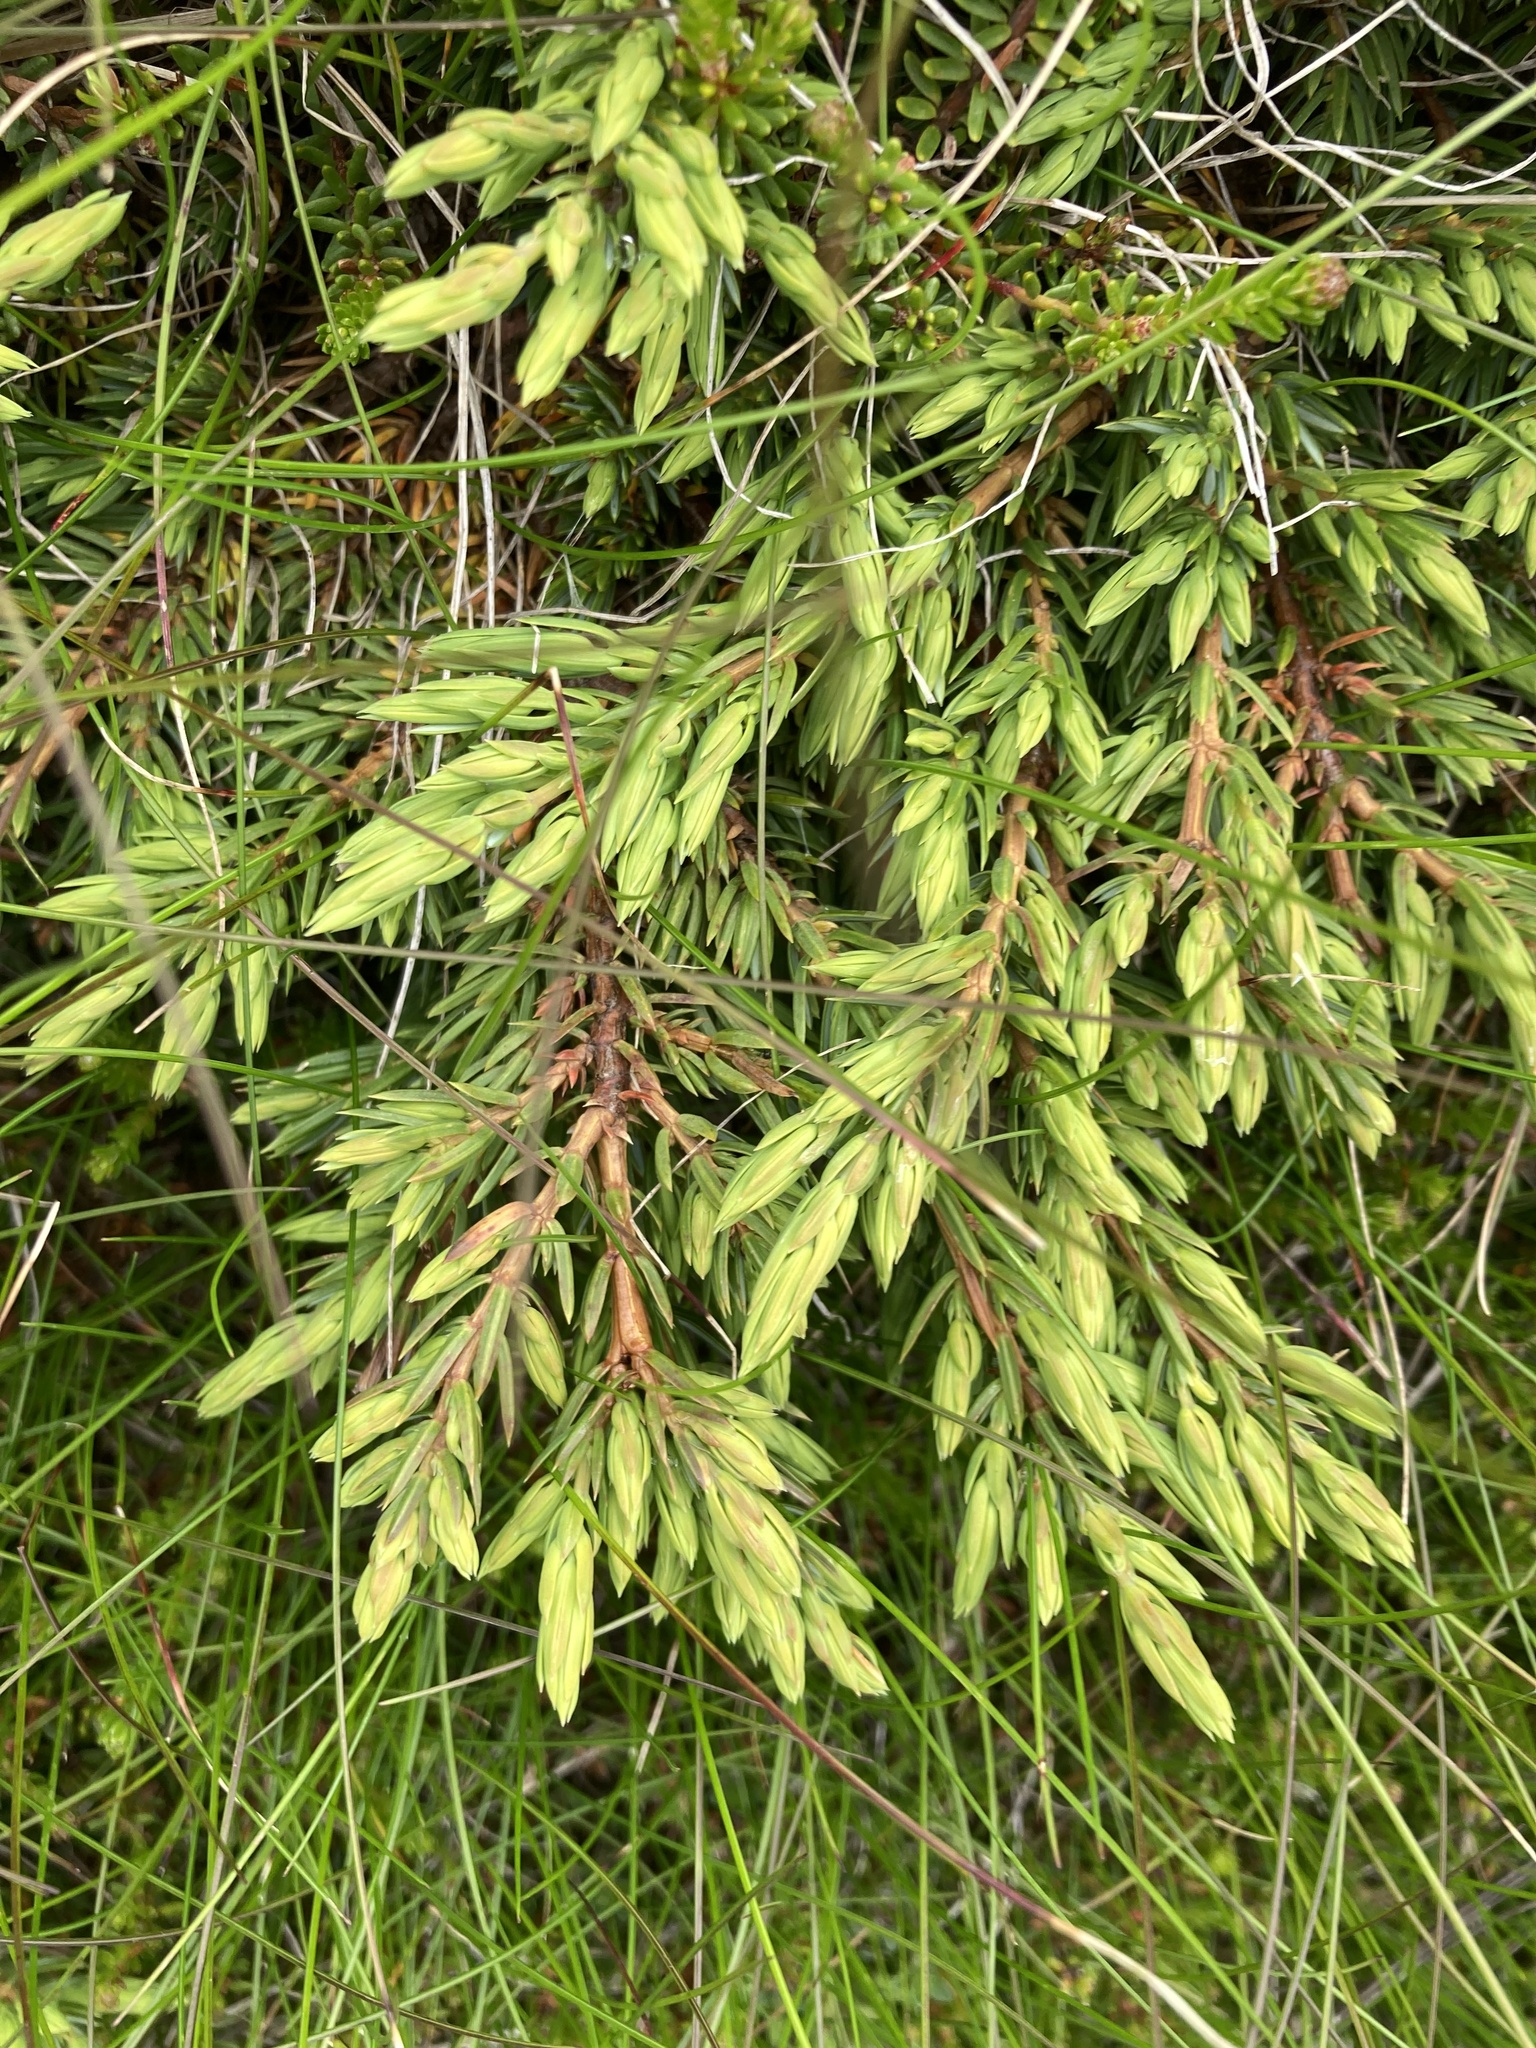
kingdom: Plantae
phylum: Tracheophyta
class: Pinopsida
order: Pinales
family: Cupressaceae
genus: Juniperus
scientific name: Juniperus communis
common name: Common juniper
